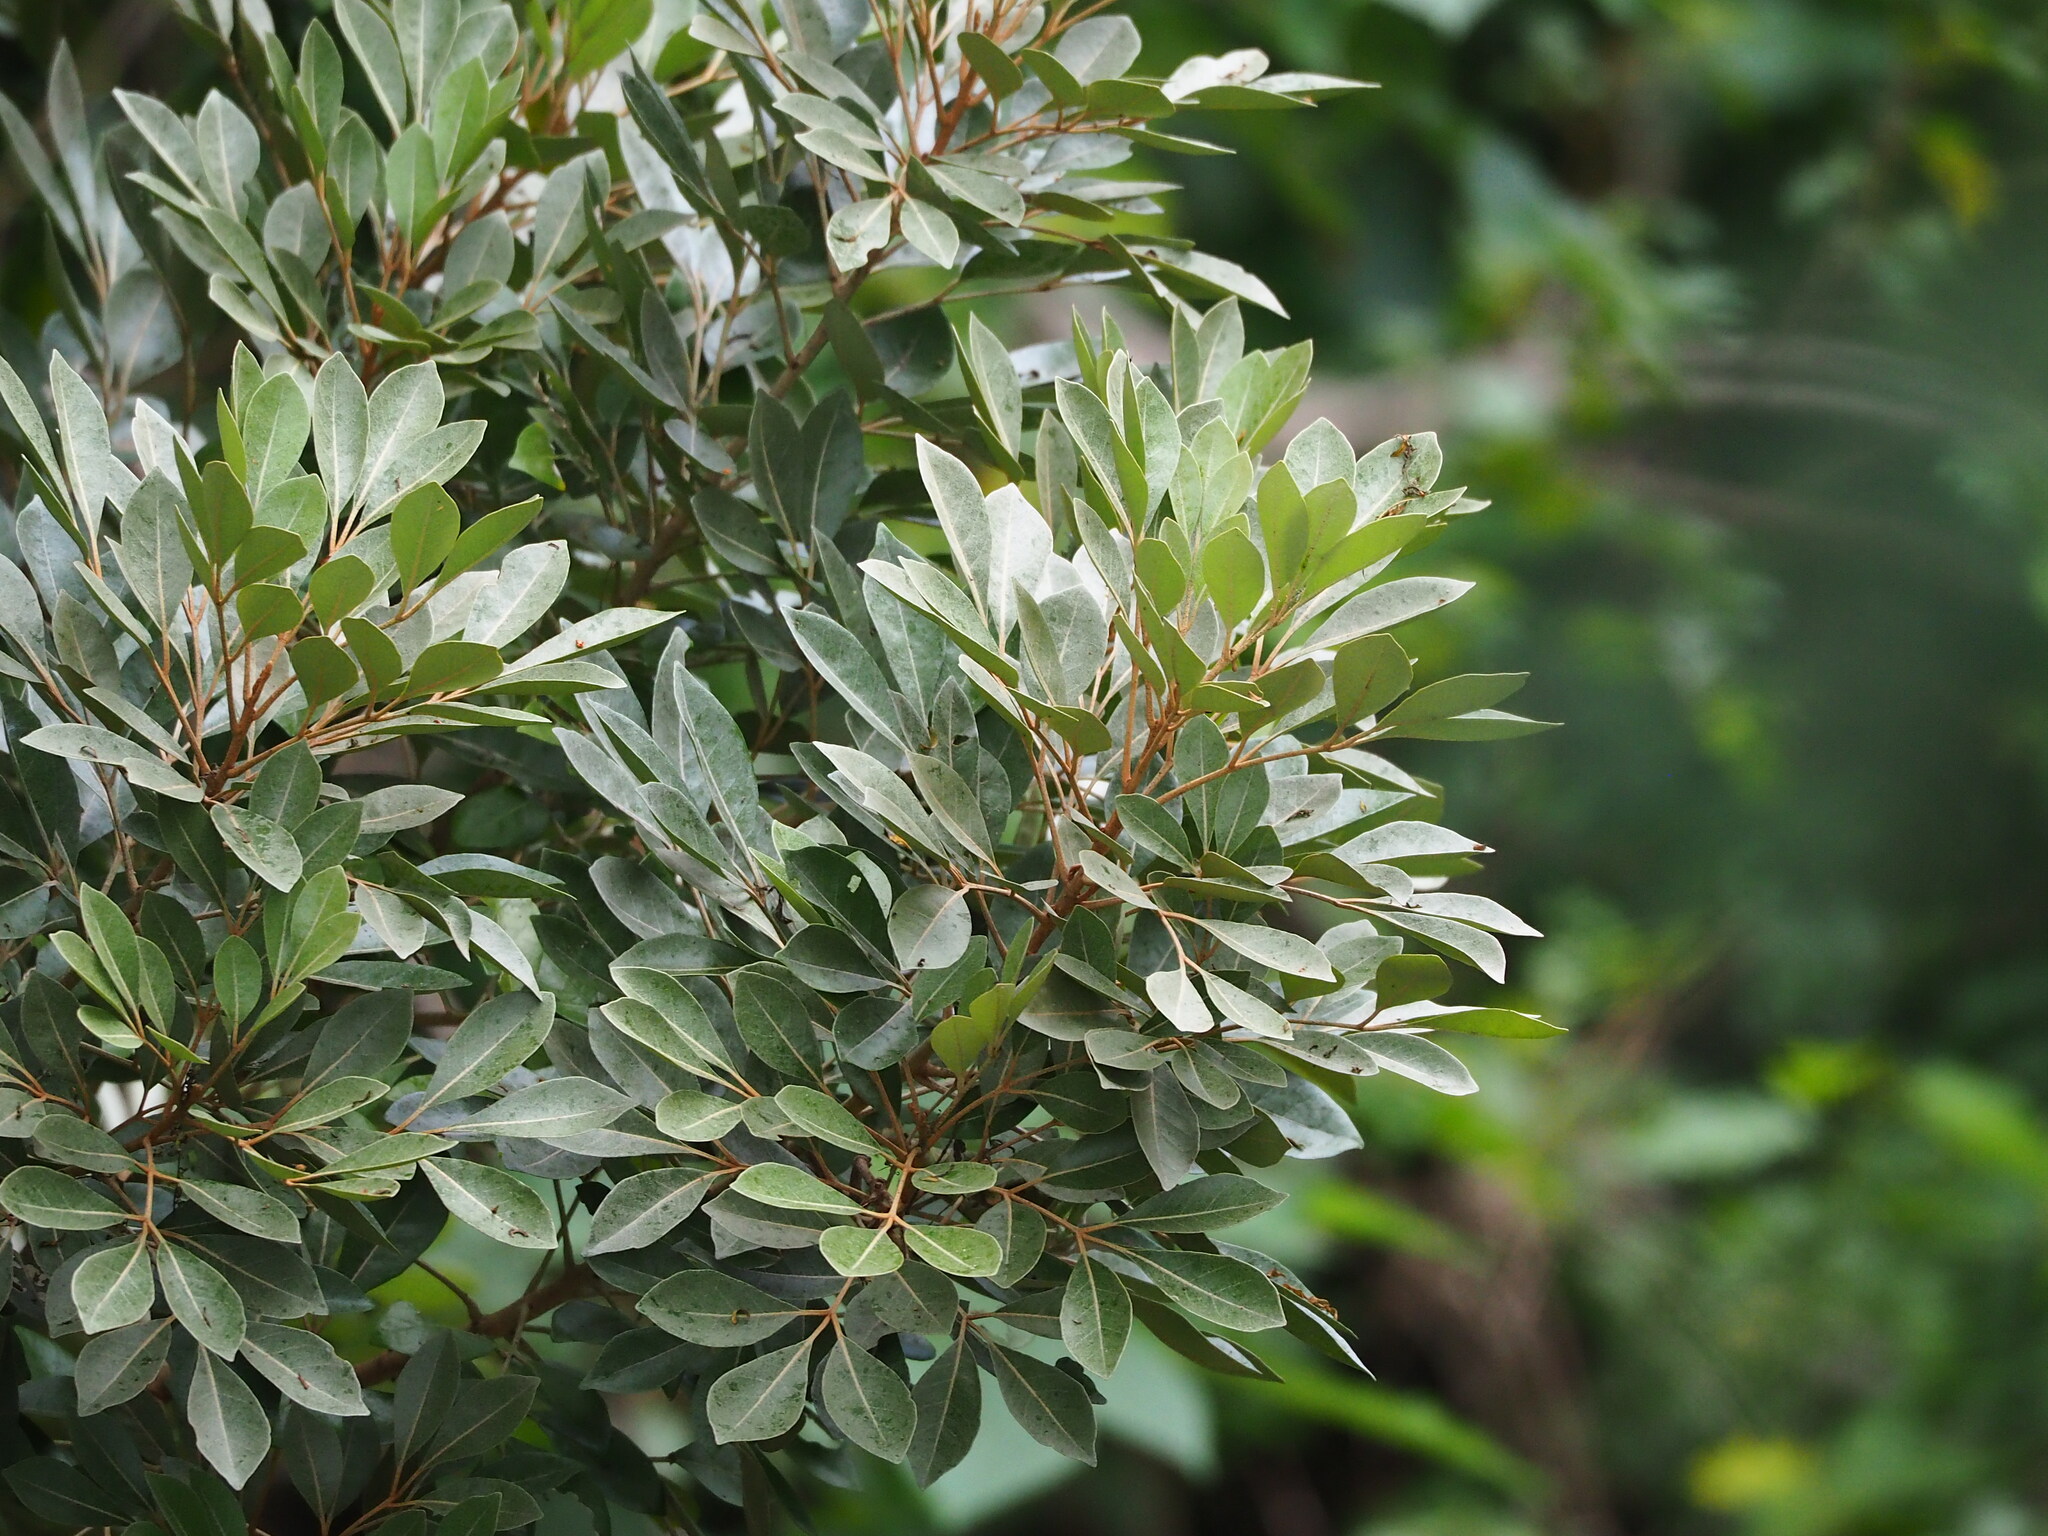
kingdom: Plantae
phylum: Tracheophyta
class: Magnoliopsida
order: Sapindales
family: Meliaceae
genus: Aglaia
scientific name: Aglaia elaeagnoidea
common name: Droopyleaf
